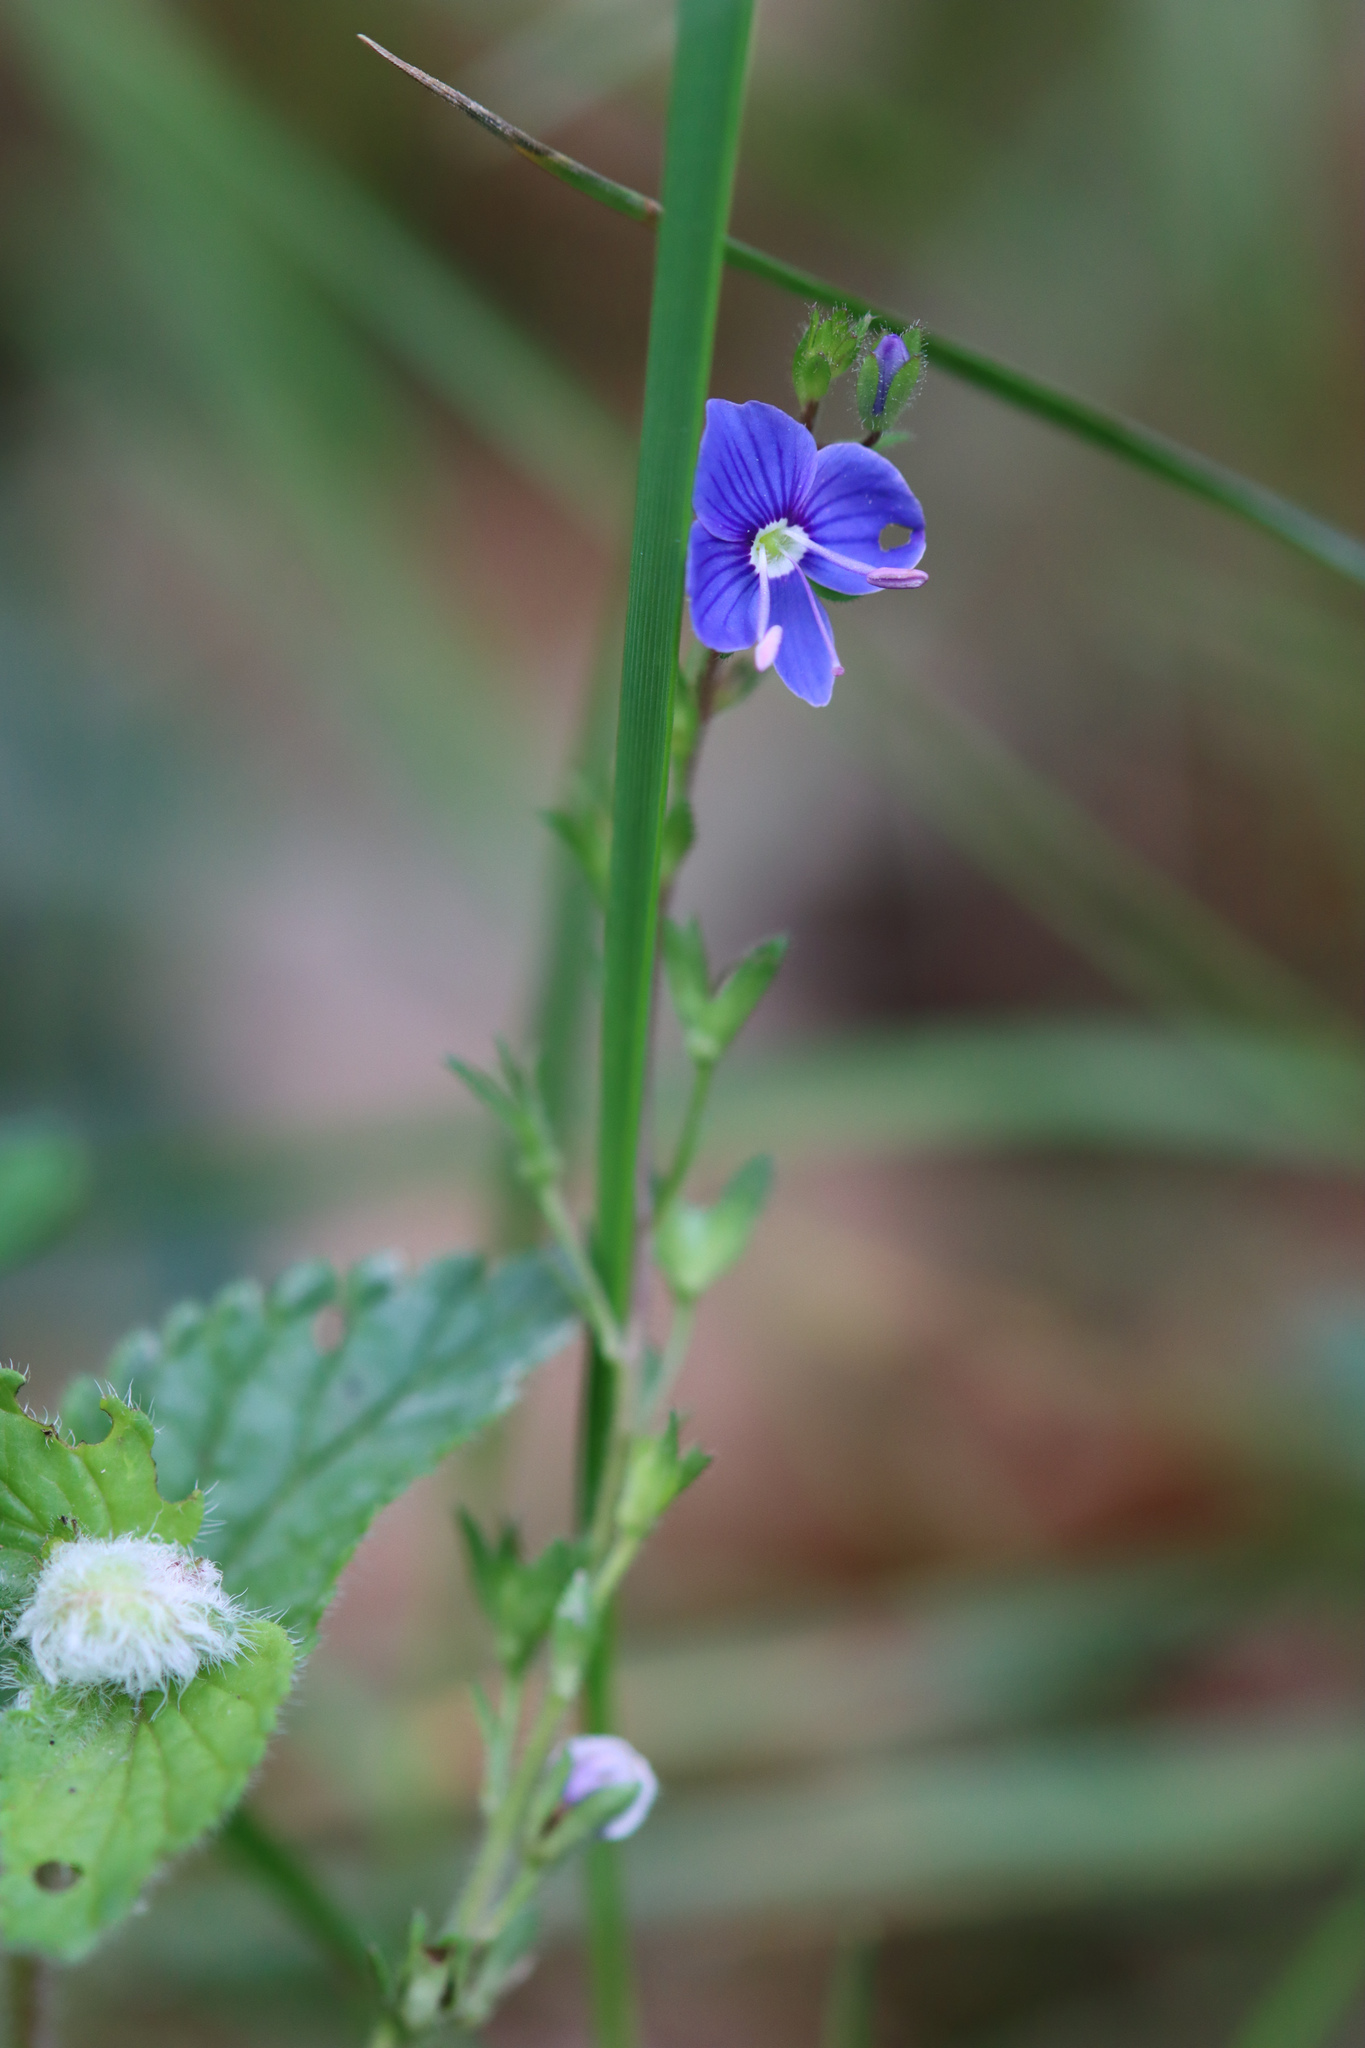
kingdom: Plantae
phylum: Tracheophyta
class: Magnoliopsida
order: Lamiales
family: Plantaginaceae
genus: Veronica
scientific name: Veronica chamaedrys
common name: Germander speedwell
